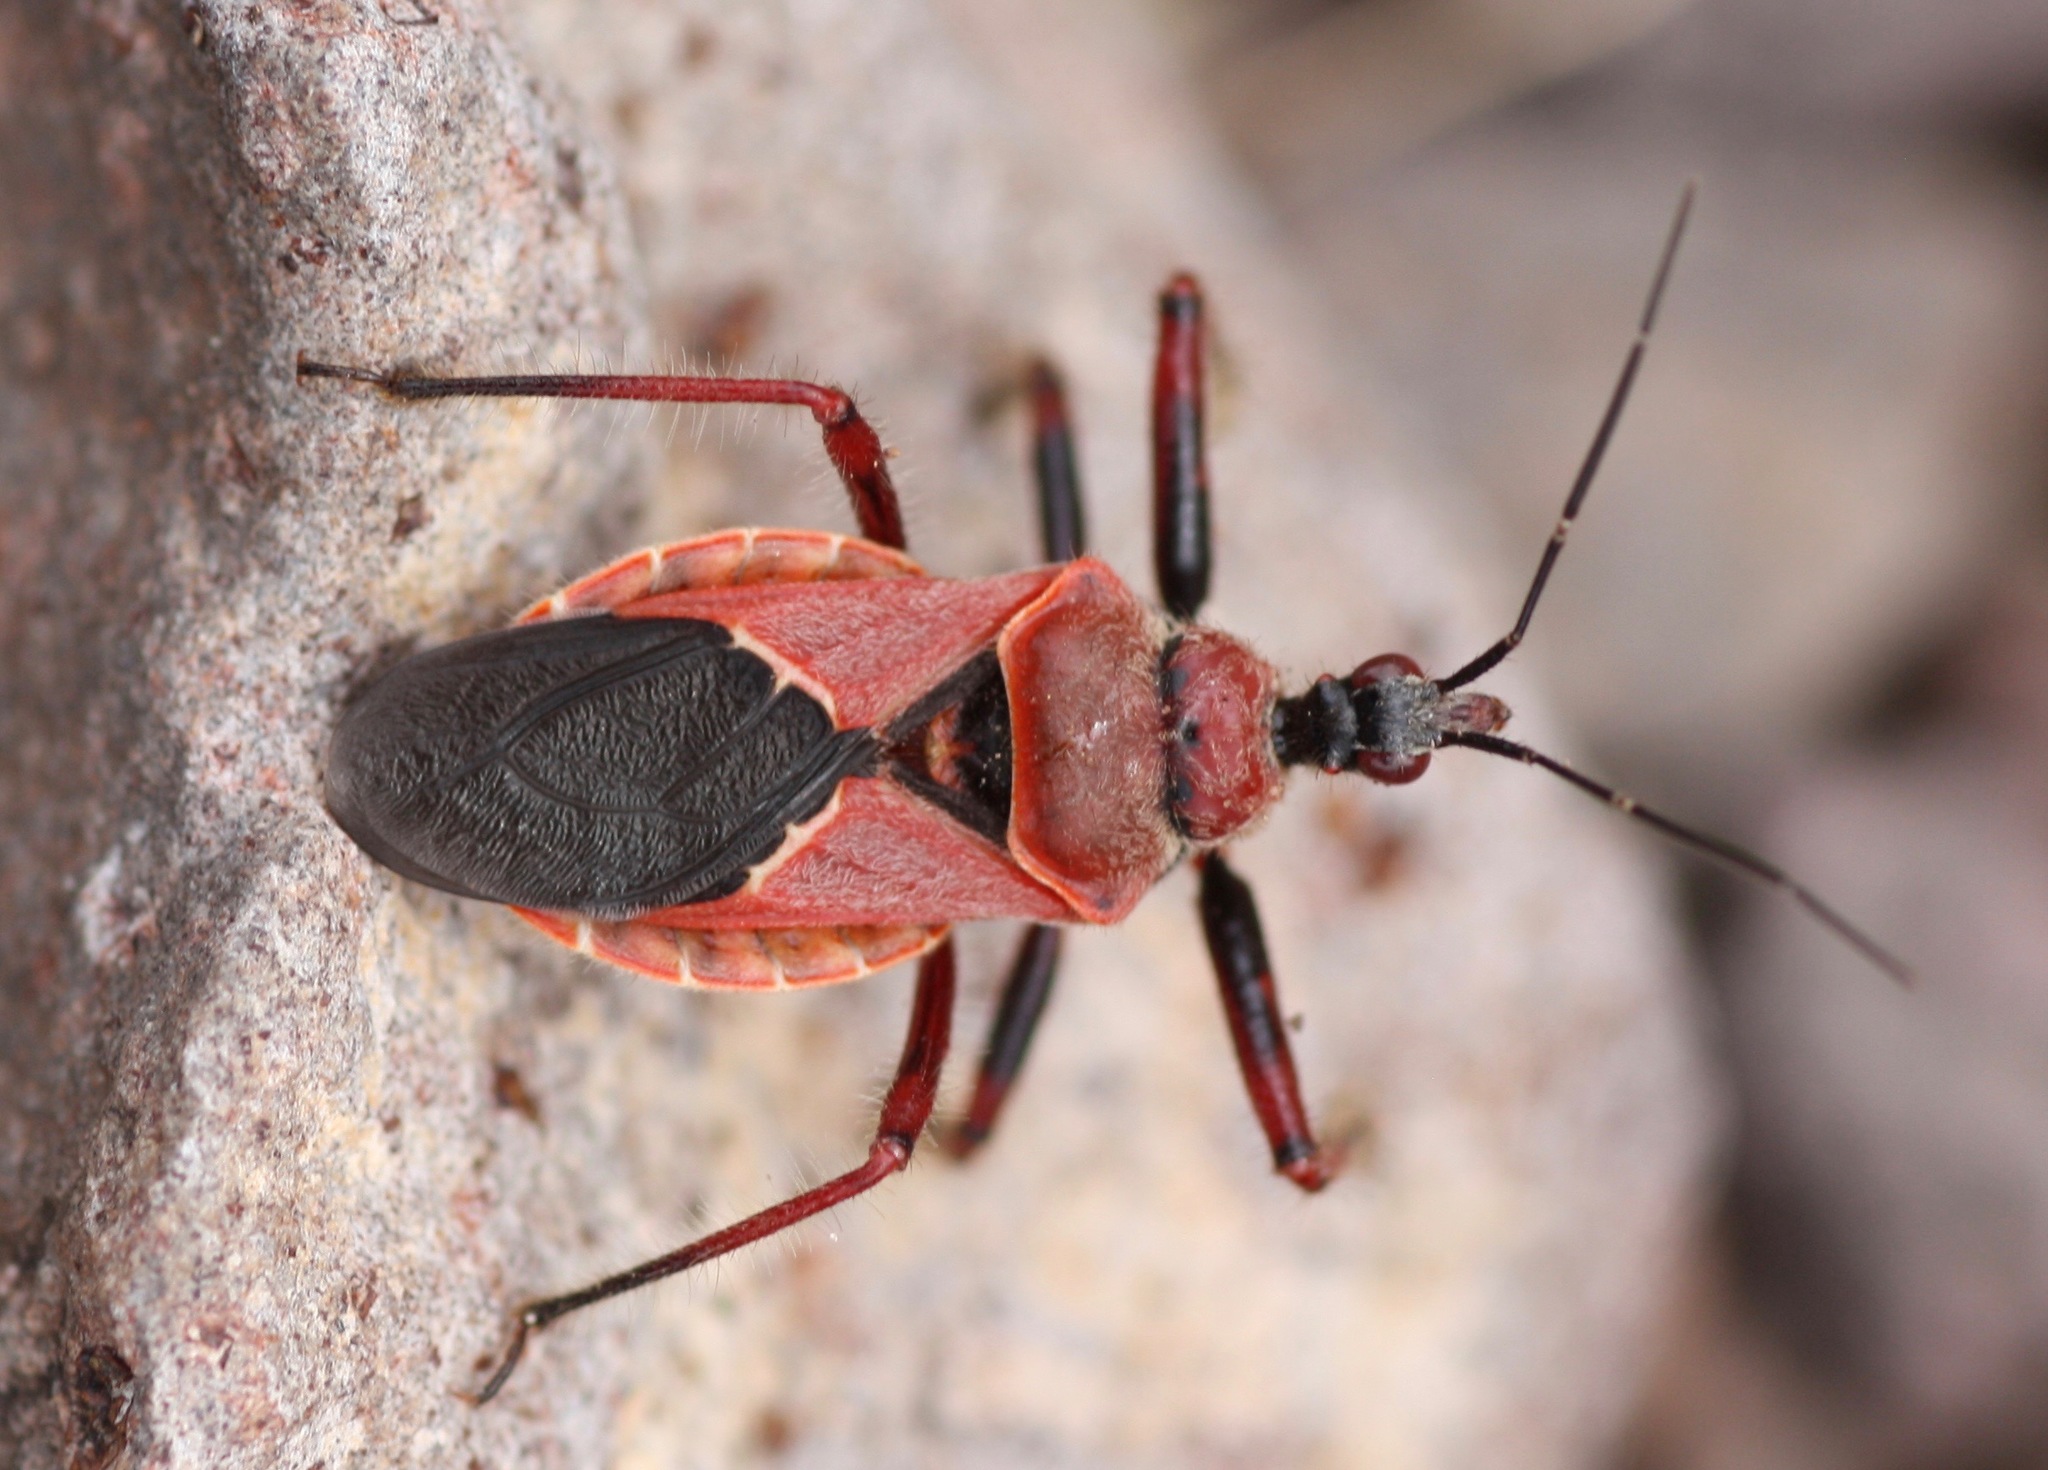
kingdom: Animalia
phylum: Arthropoda
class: Insecta
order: Hemiptera
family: Reduviidae
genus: Apiomerus
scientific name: Apiomerus cazieri
